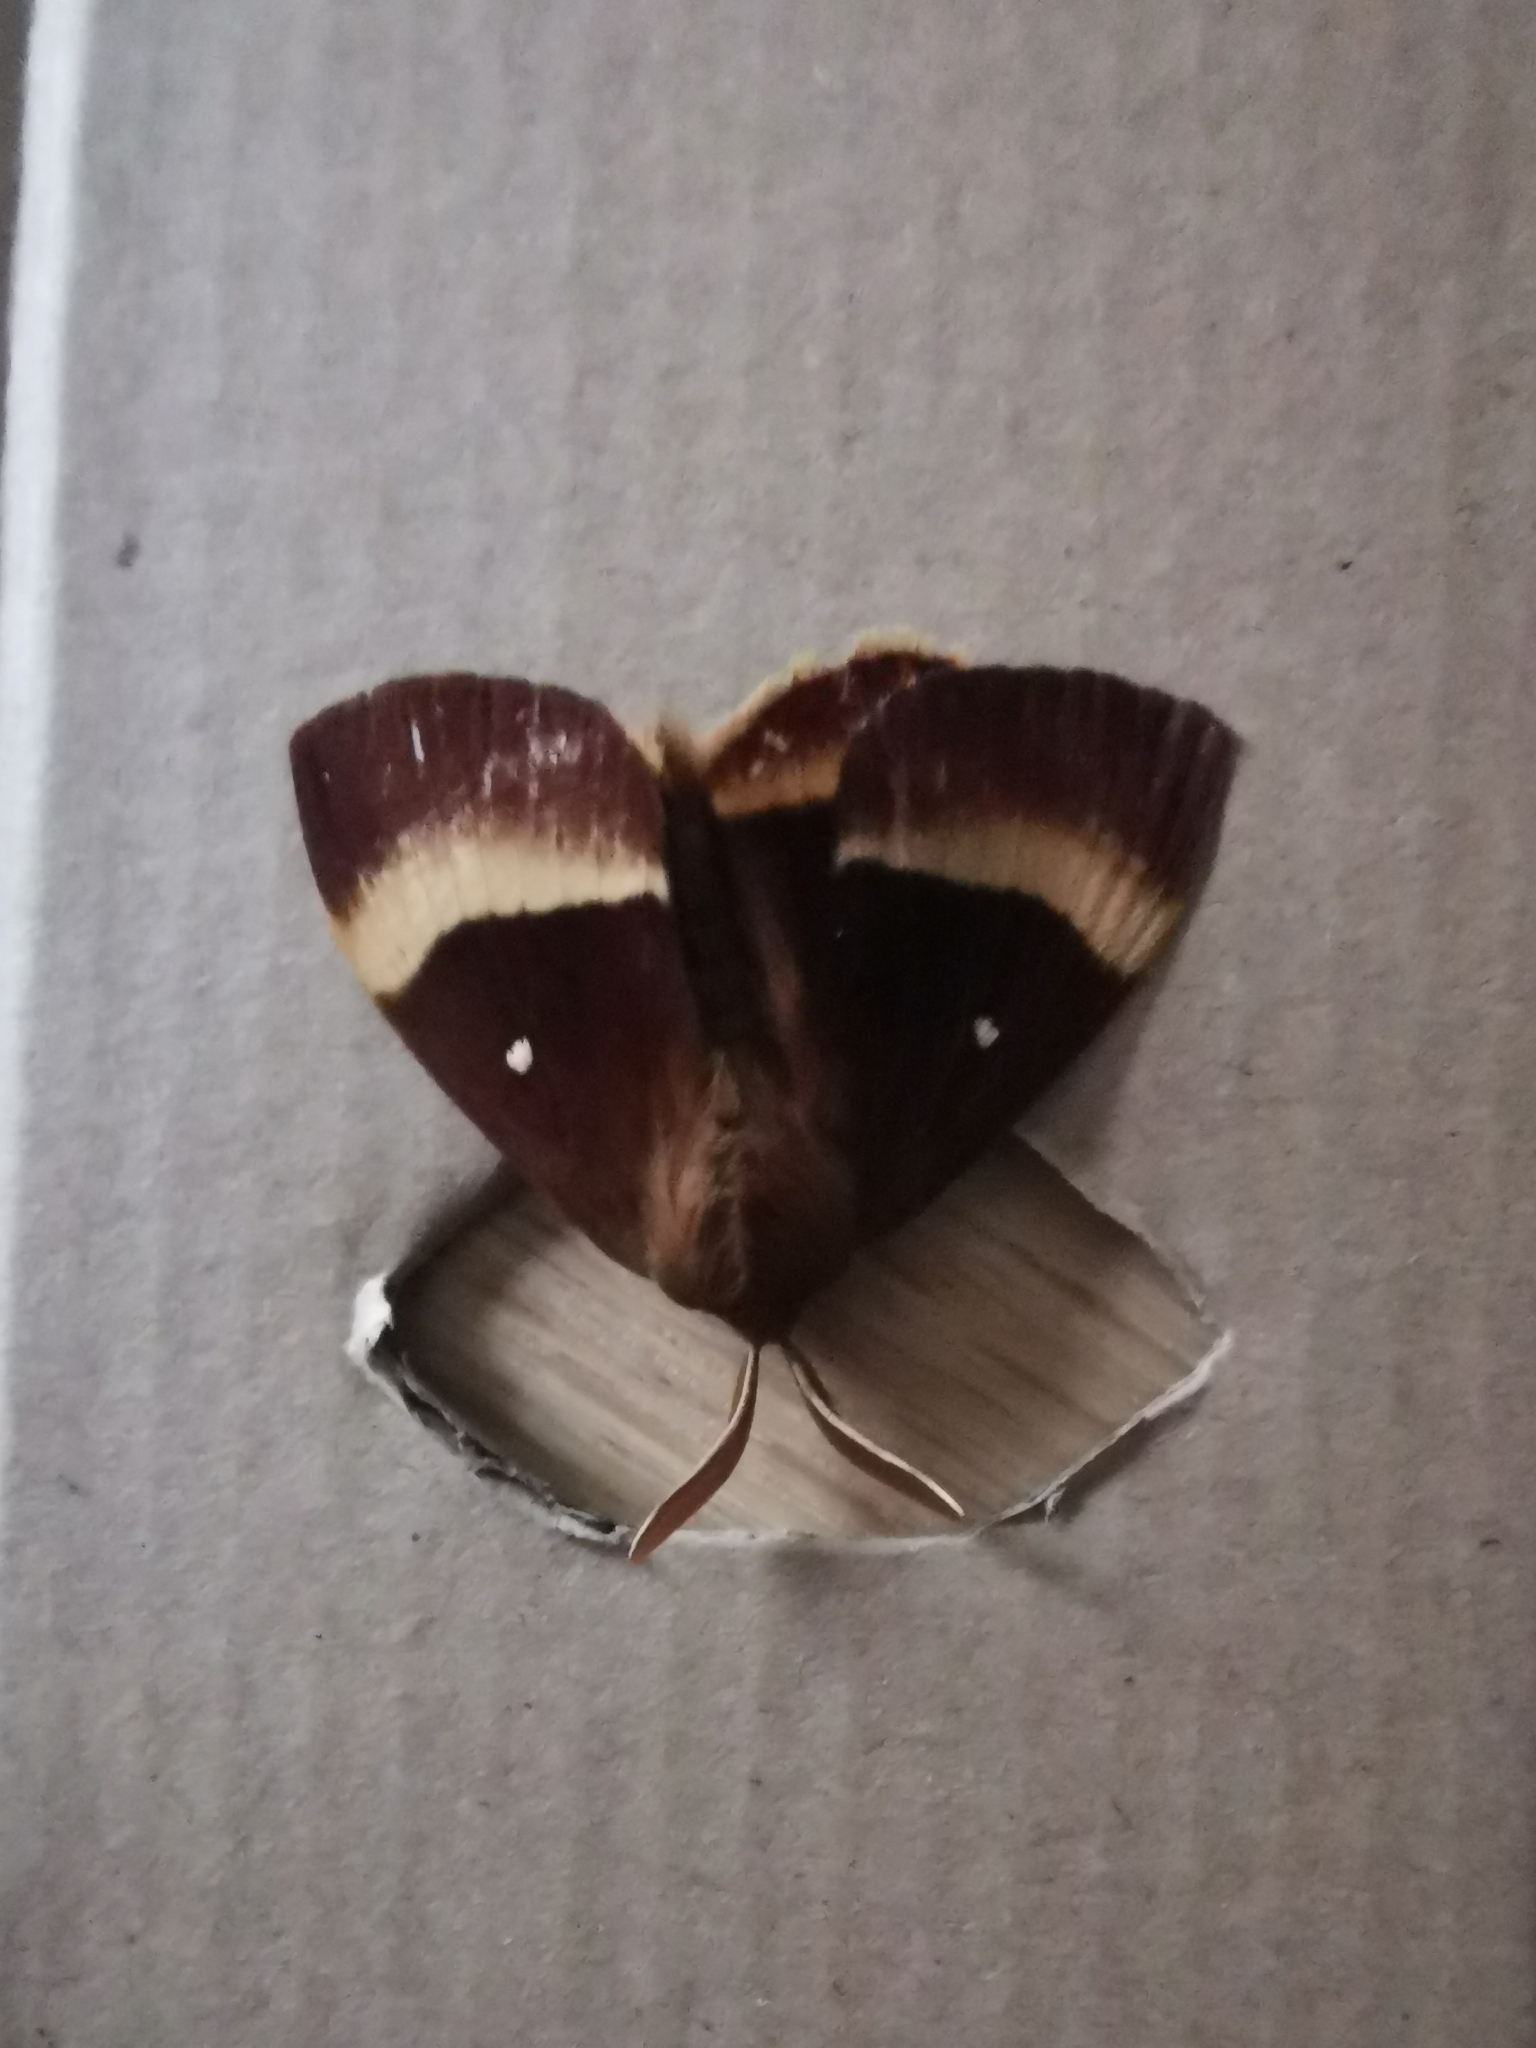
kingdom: Animalia
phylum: Arthropoda
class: Insecta
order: Lepidoptera
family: Lasiocampidae
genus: Lasiocampa
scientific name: Lasiocampa quercus
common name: Oak eggar
